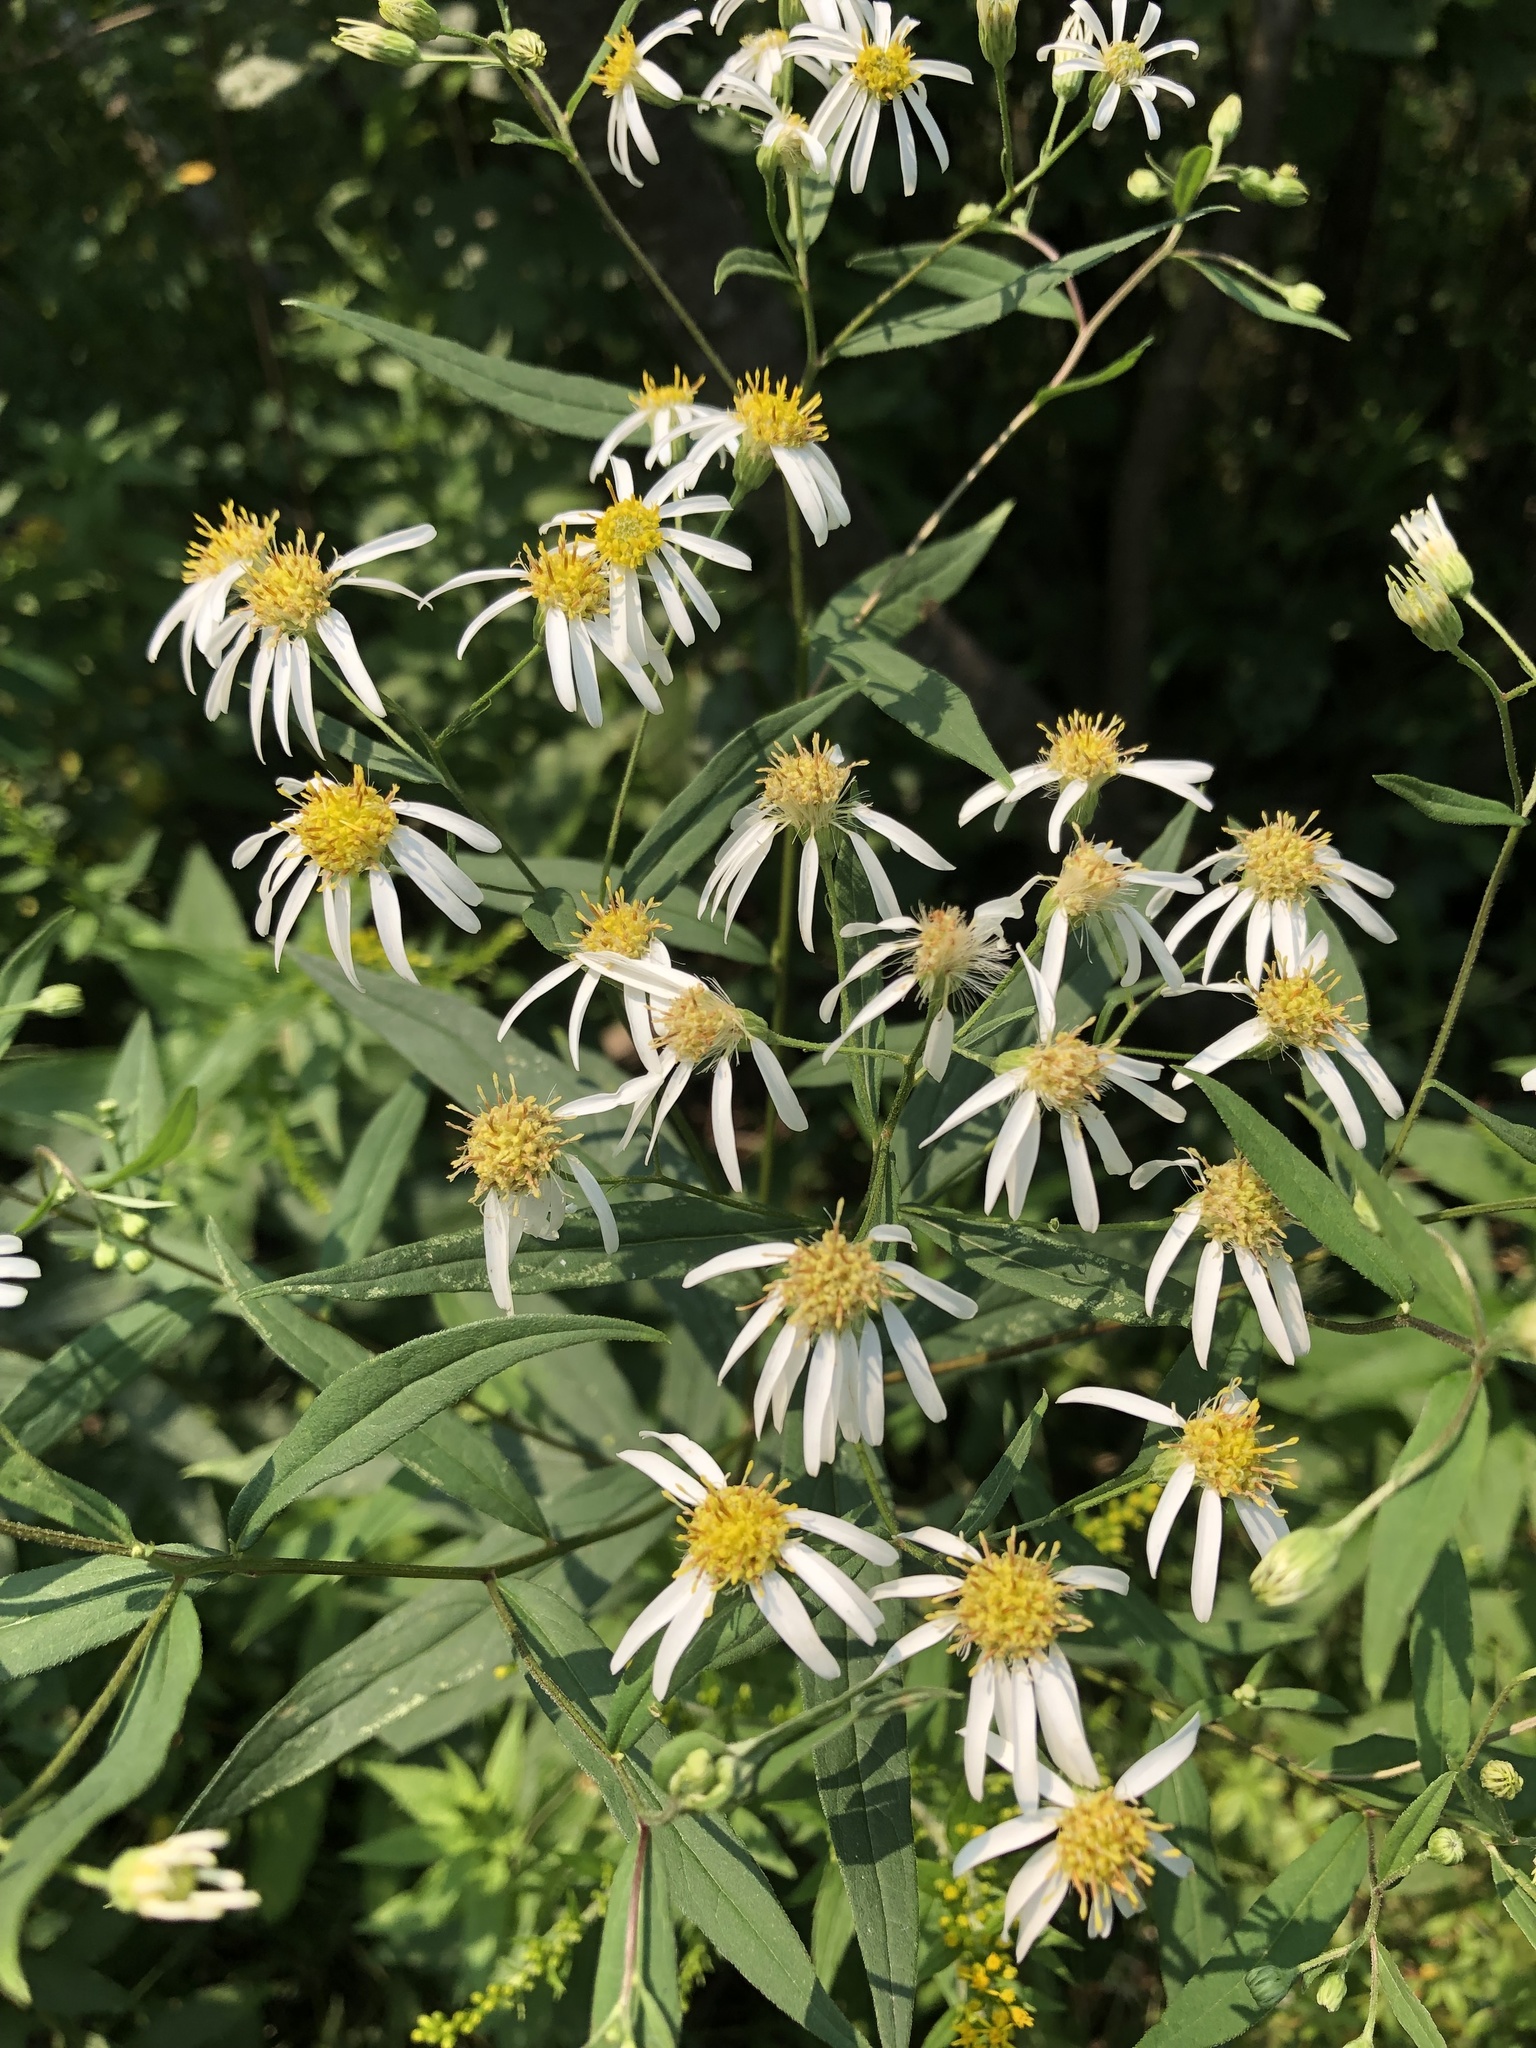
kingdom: Plantae
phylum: Tracheophyta
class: Magnoliopsida
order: Asterales
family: Asteraceae
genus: Doellingeria
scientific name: Doellingeria umbellata
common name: Flat-top white aster
